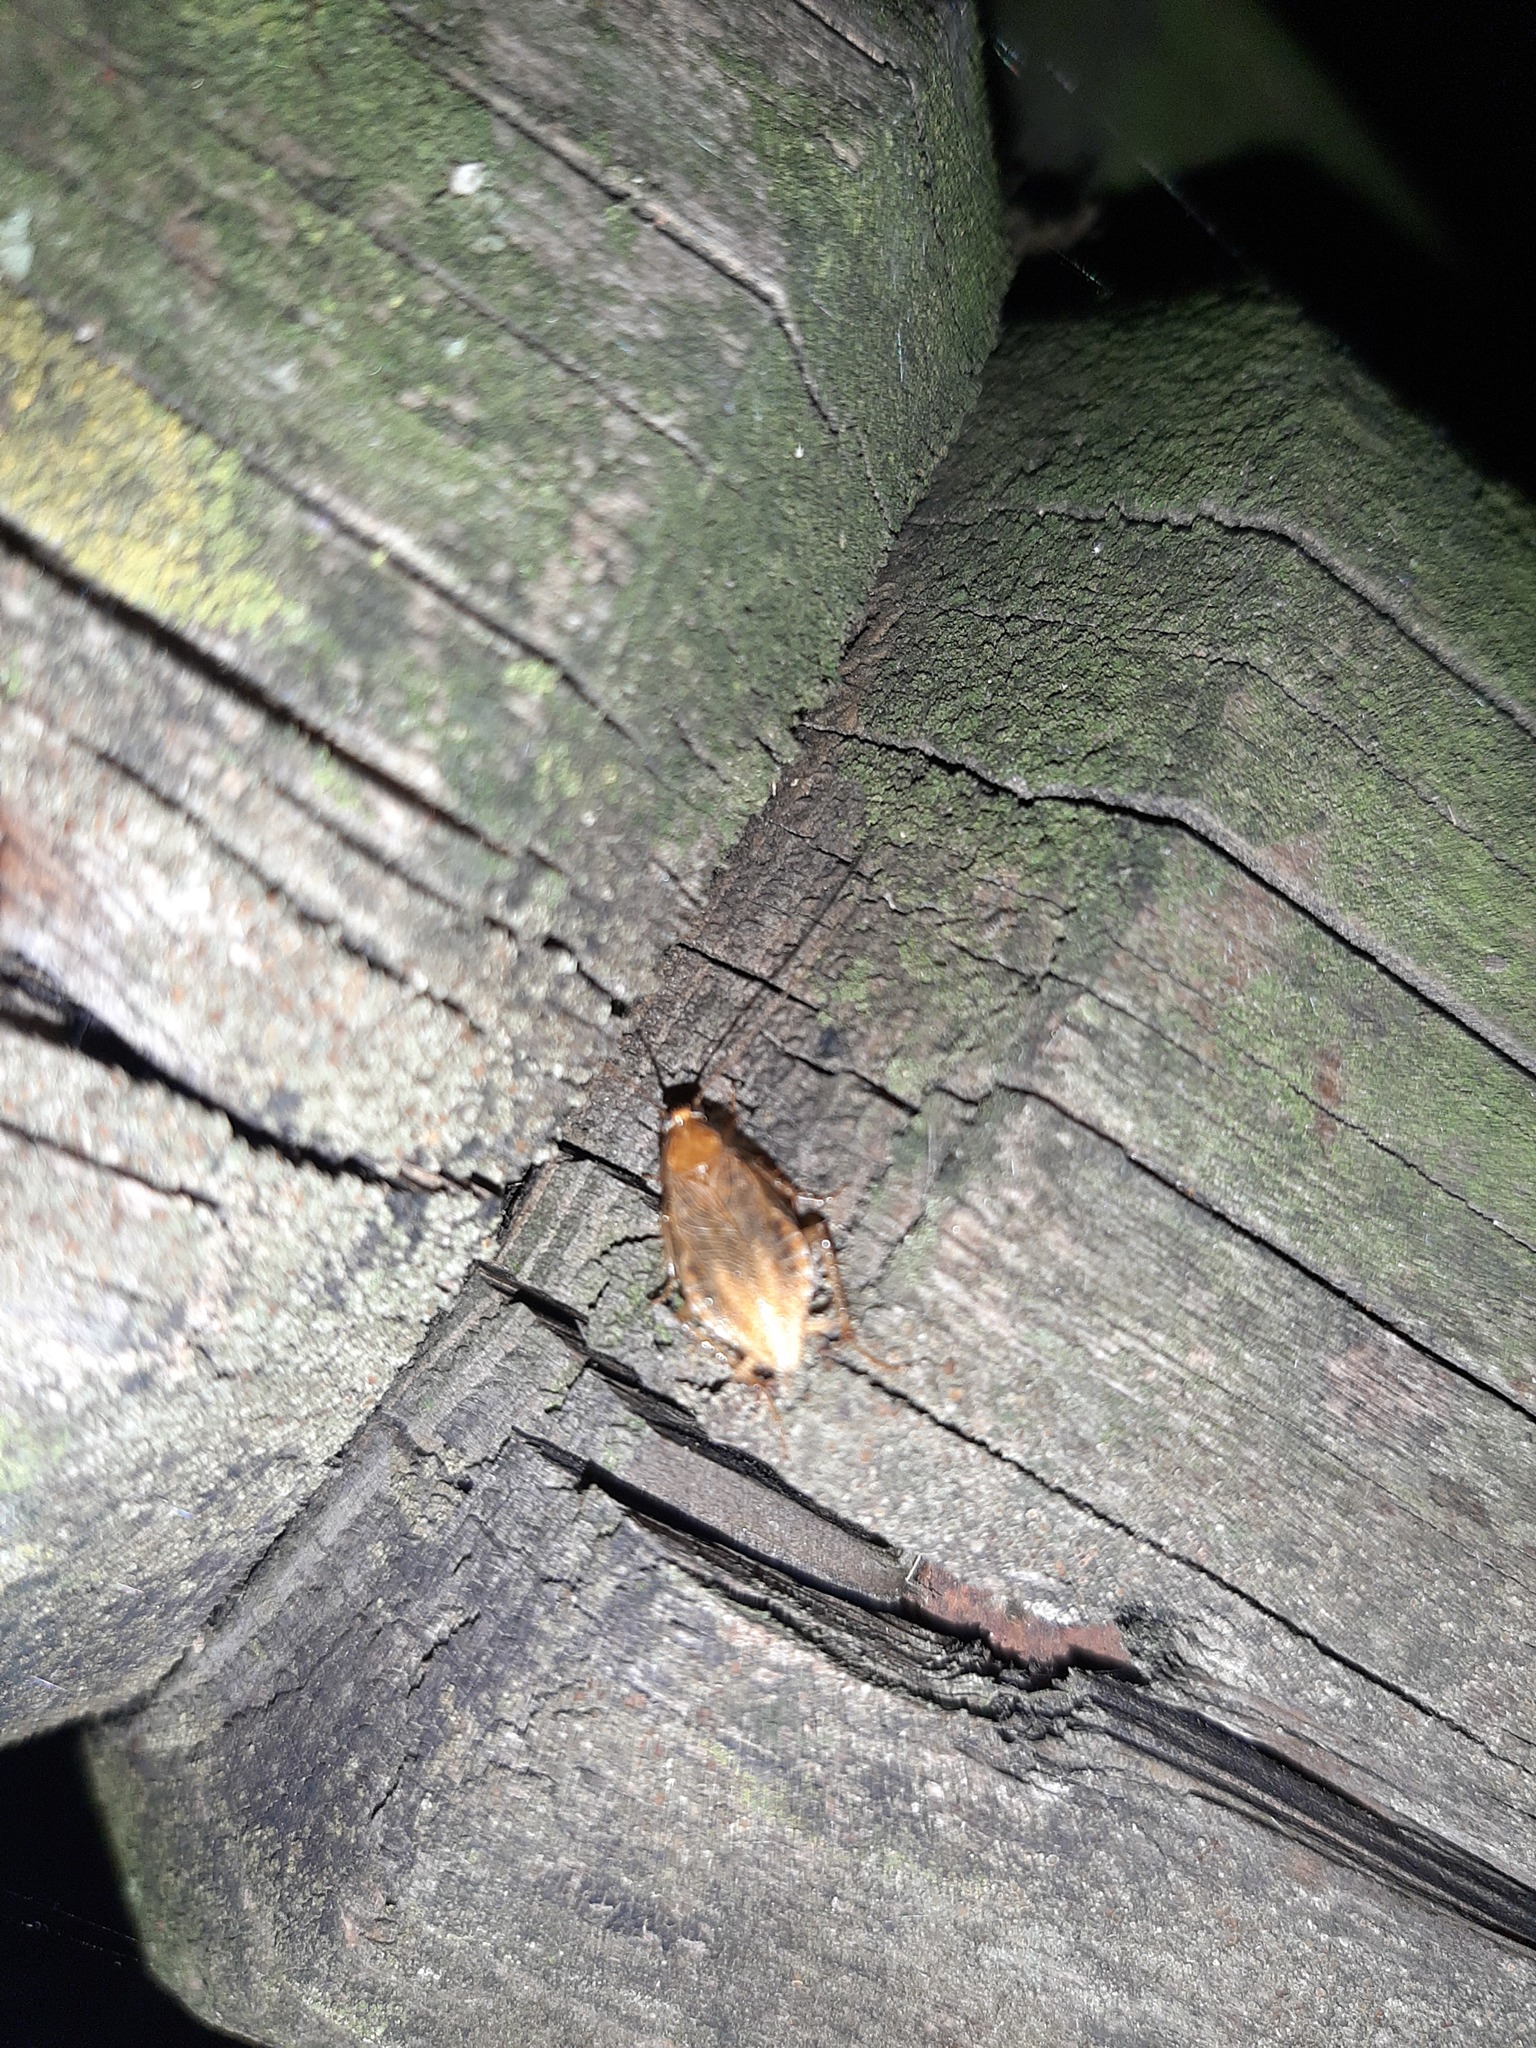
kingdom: Animalia
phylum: Arthropoda
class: Insecta
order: Blattodea
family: Ectobiidae
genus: Ectobius
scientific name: Ectobius vittiventris
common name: Garden cockroach
